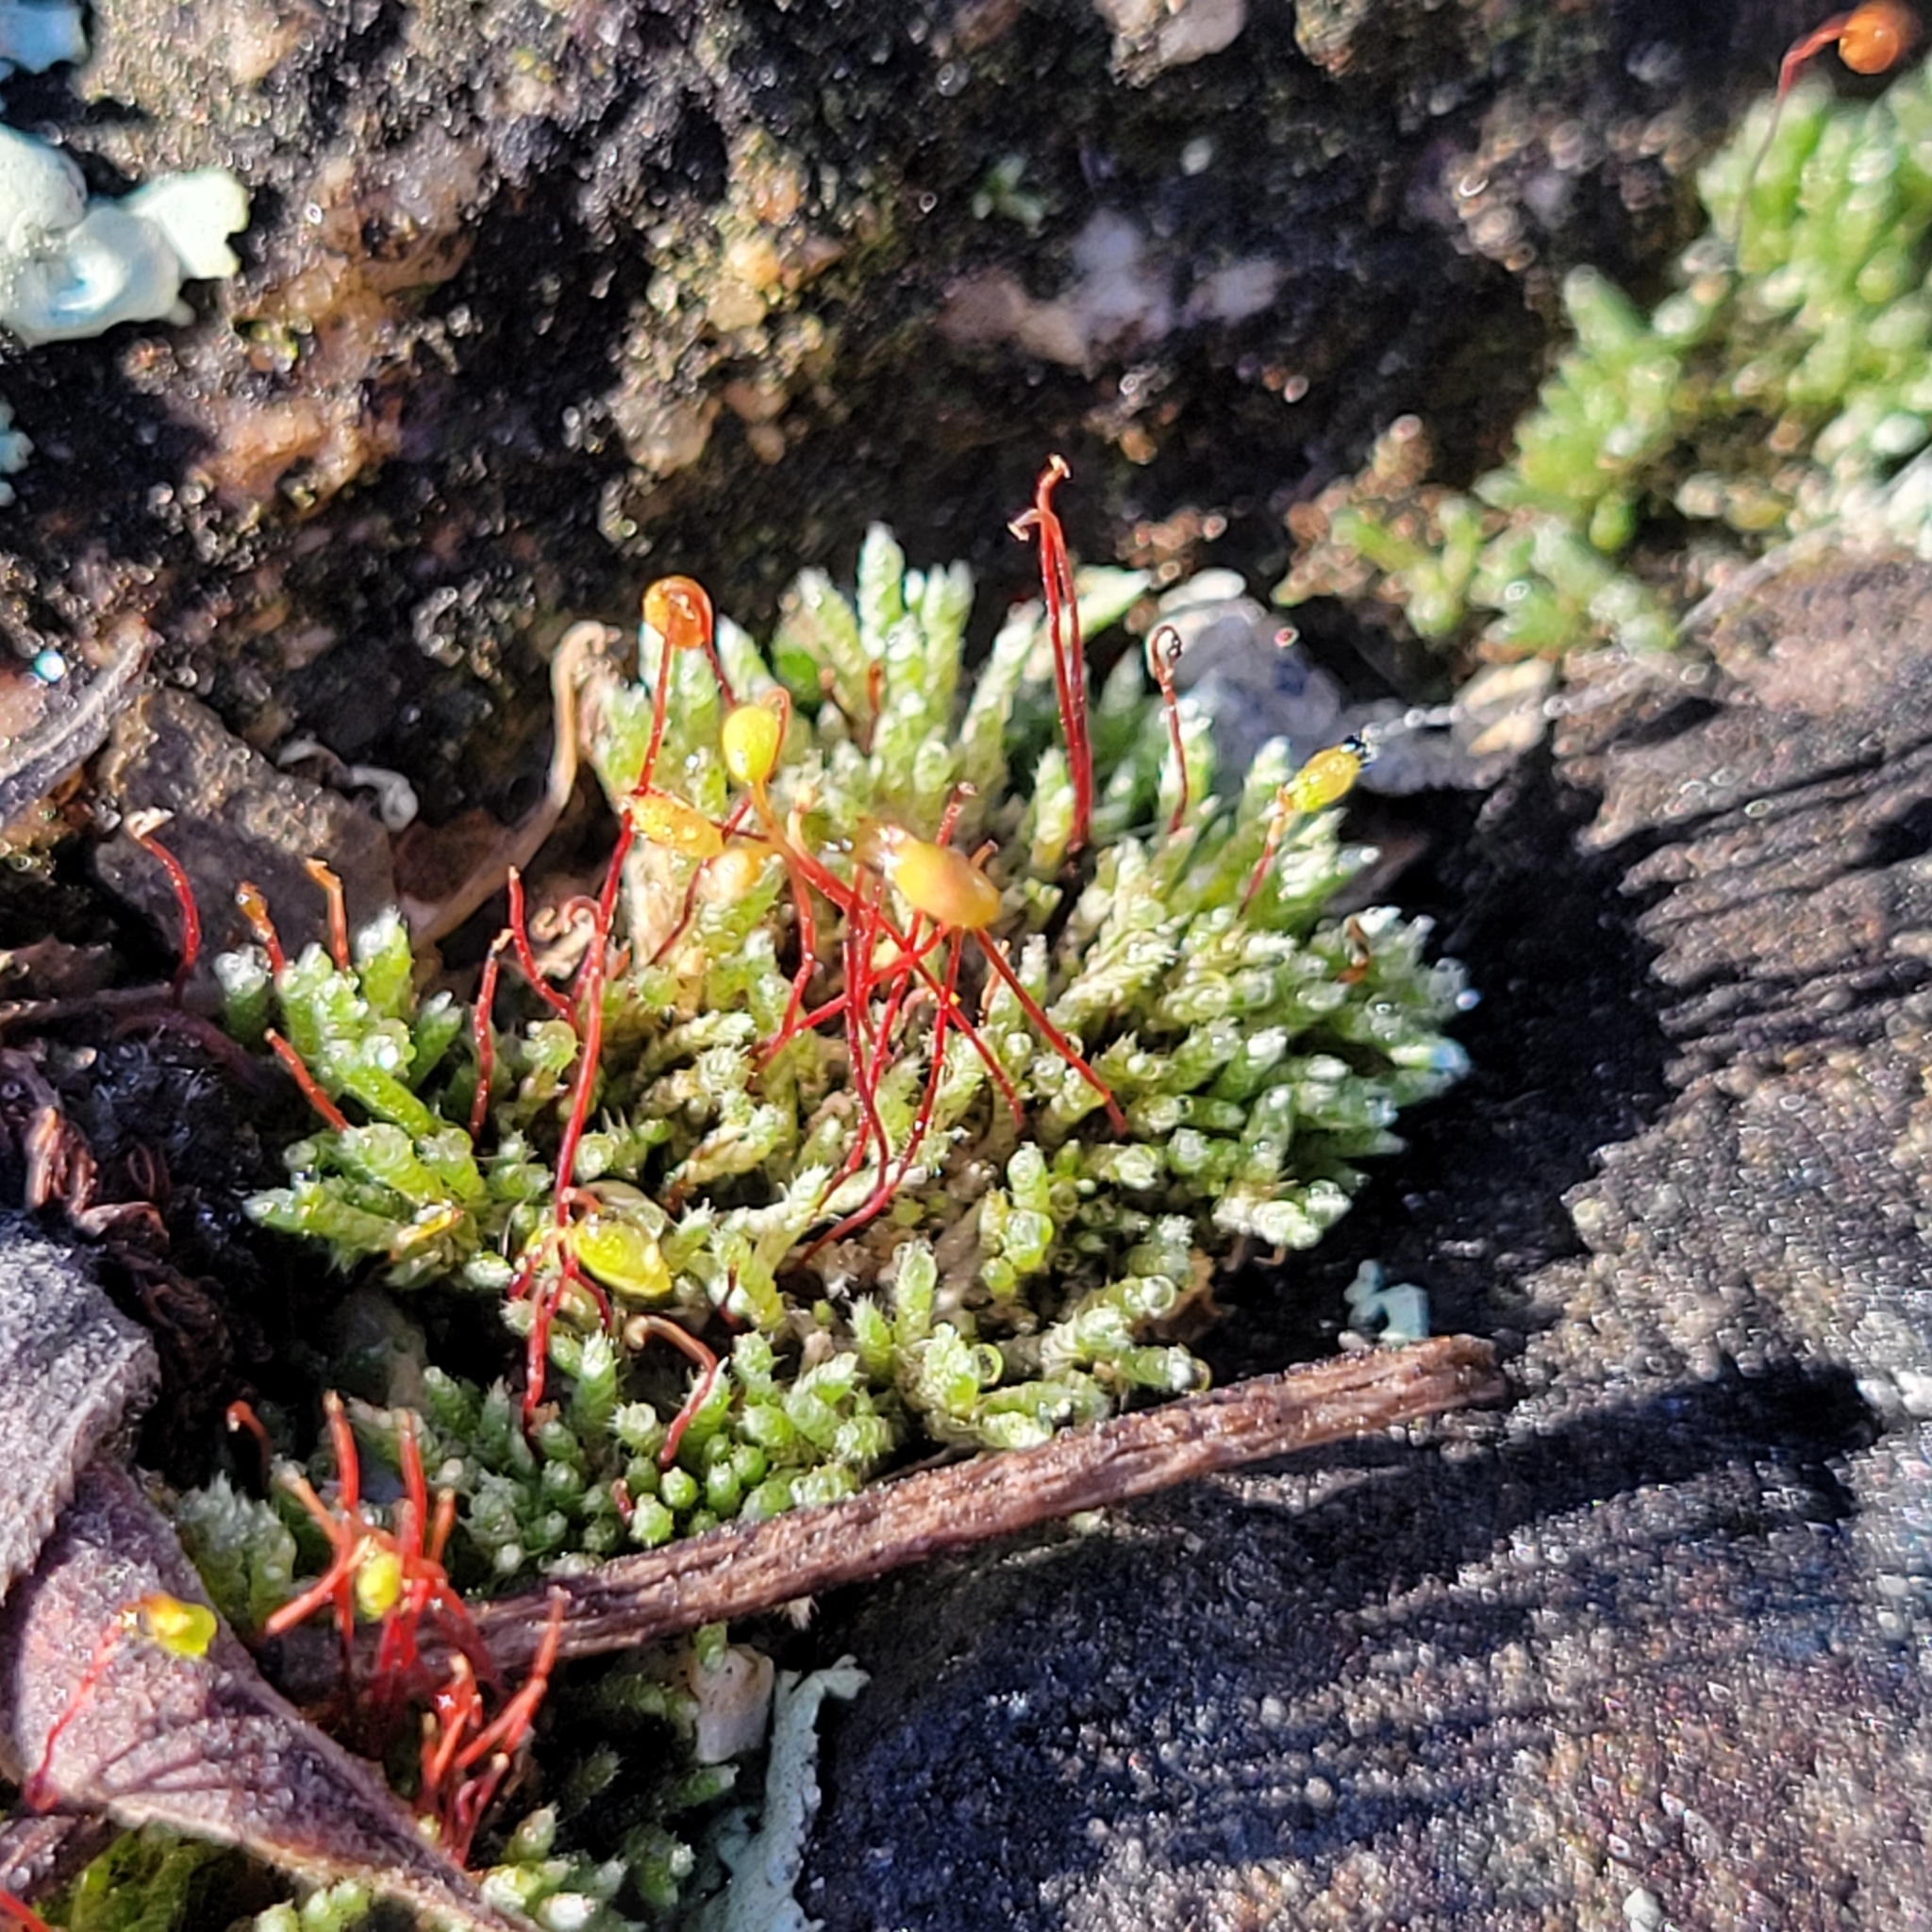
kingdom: Plantae
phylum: Bryophyta
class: Bryopsida
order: Bryales
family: Bryaceae
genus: Bryum
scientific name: Bryum argenteum
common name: Silver-moss
